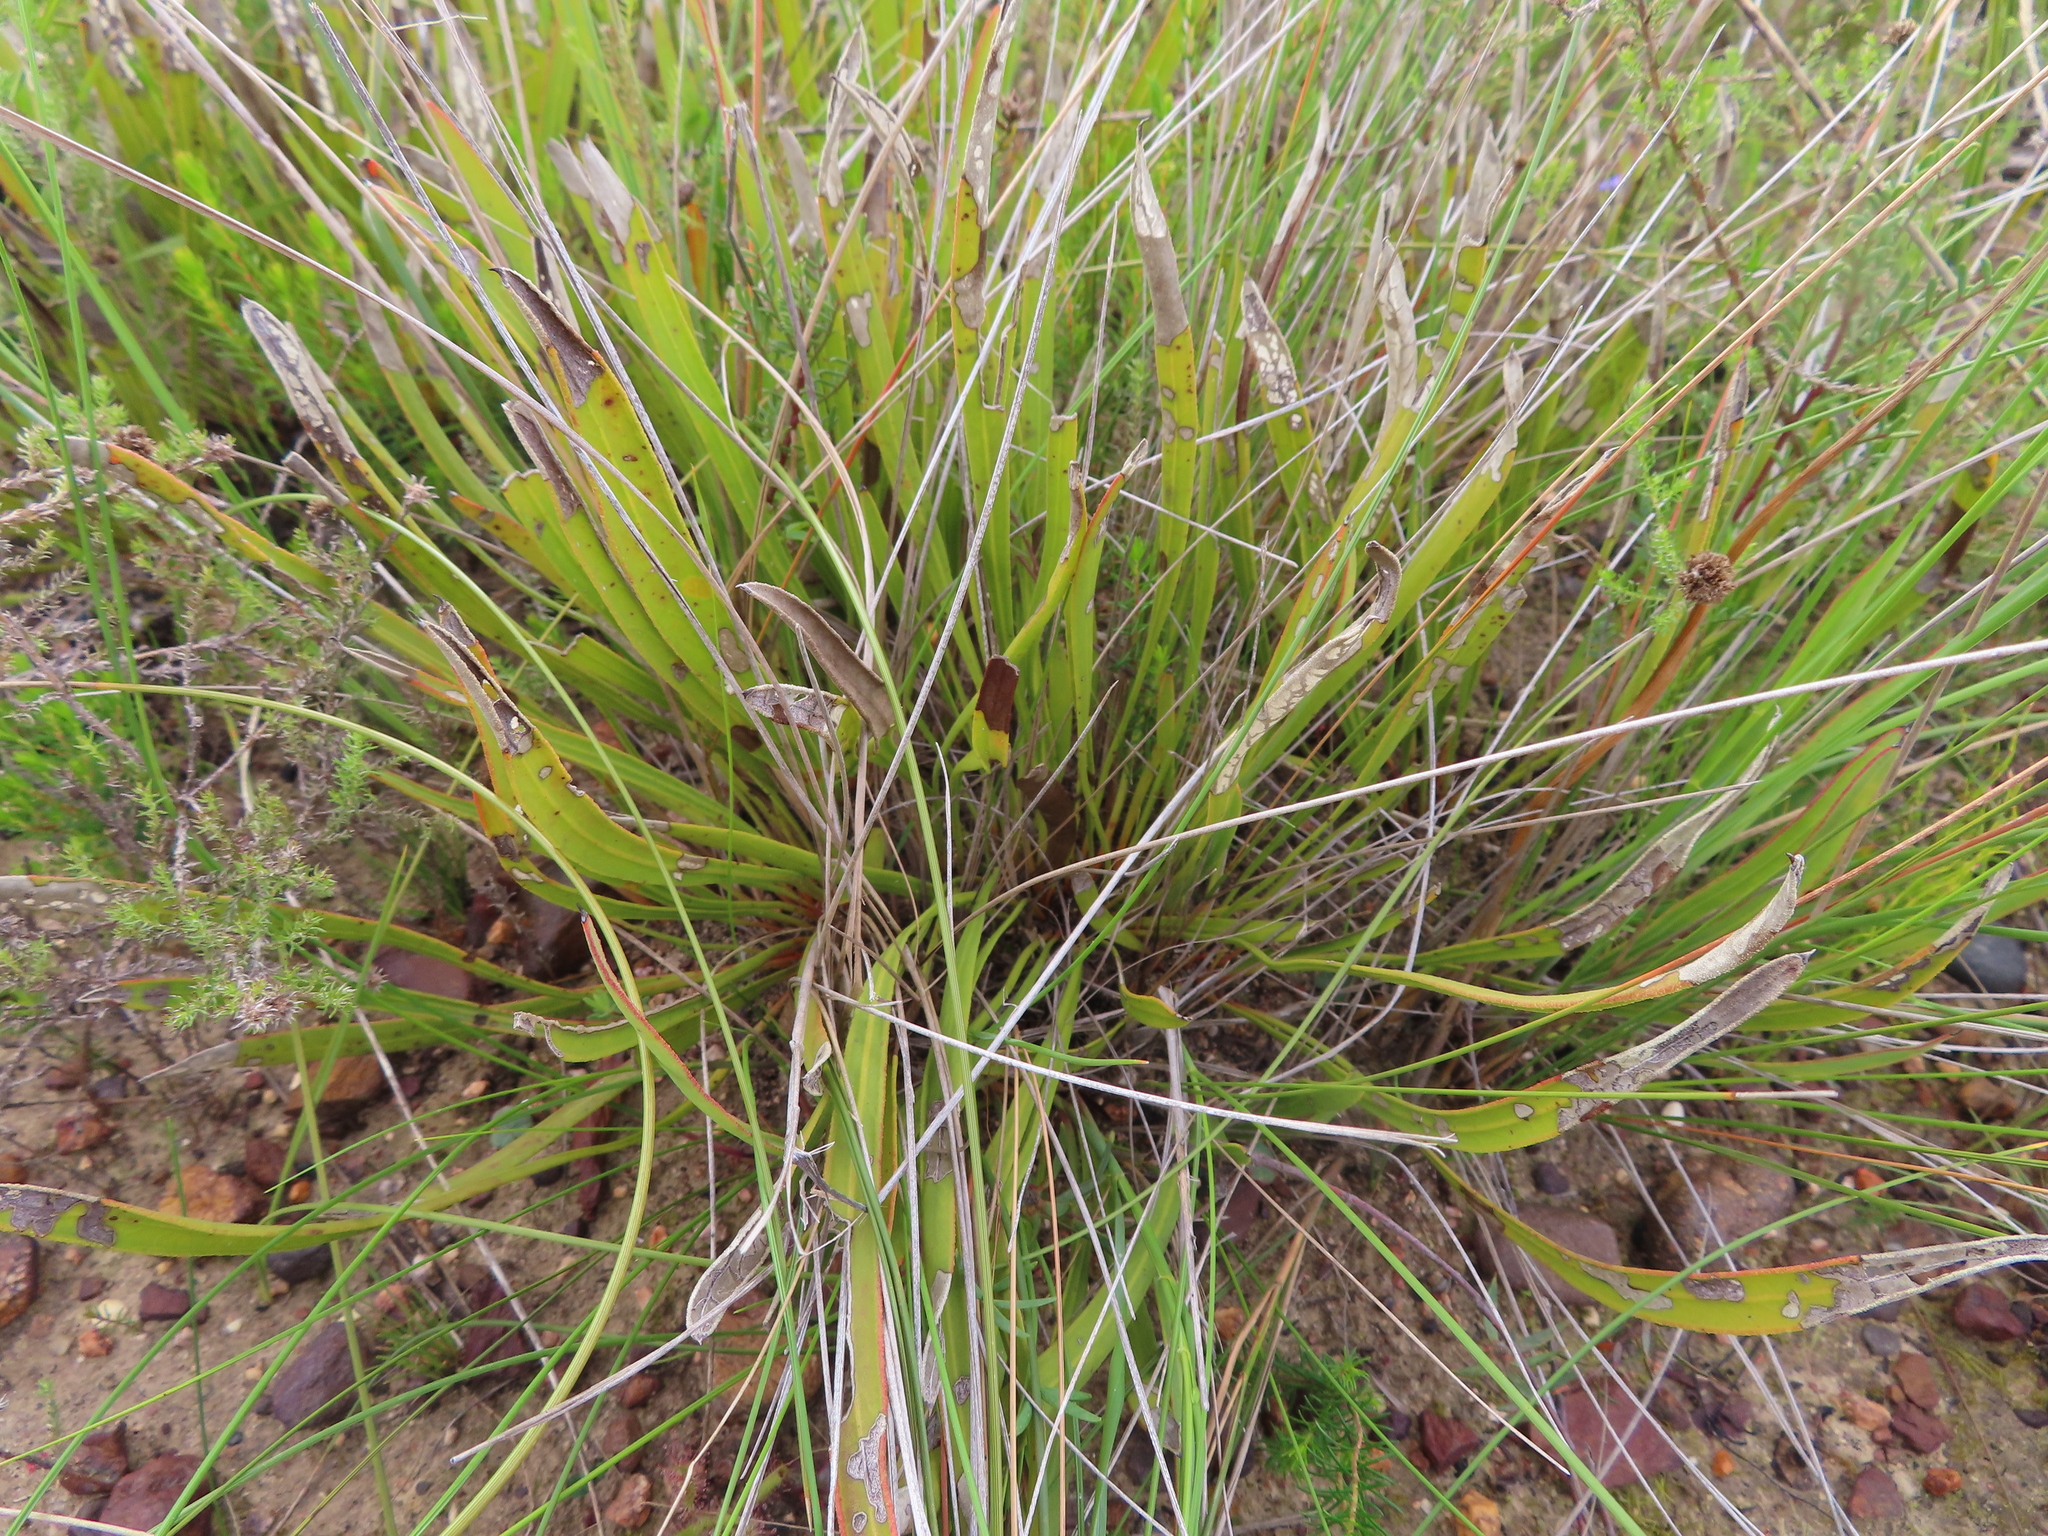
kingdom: Plantae
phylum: Tracheophyta
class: Magnoliopsida
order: Proteales
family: Proteaceae
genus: Protea
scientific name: Protea scabra
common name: Sandpaper-leaf sugarbush
